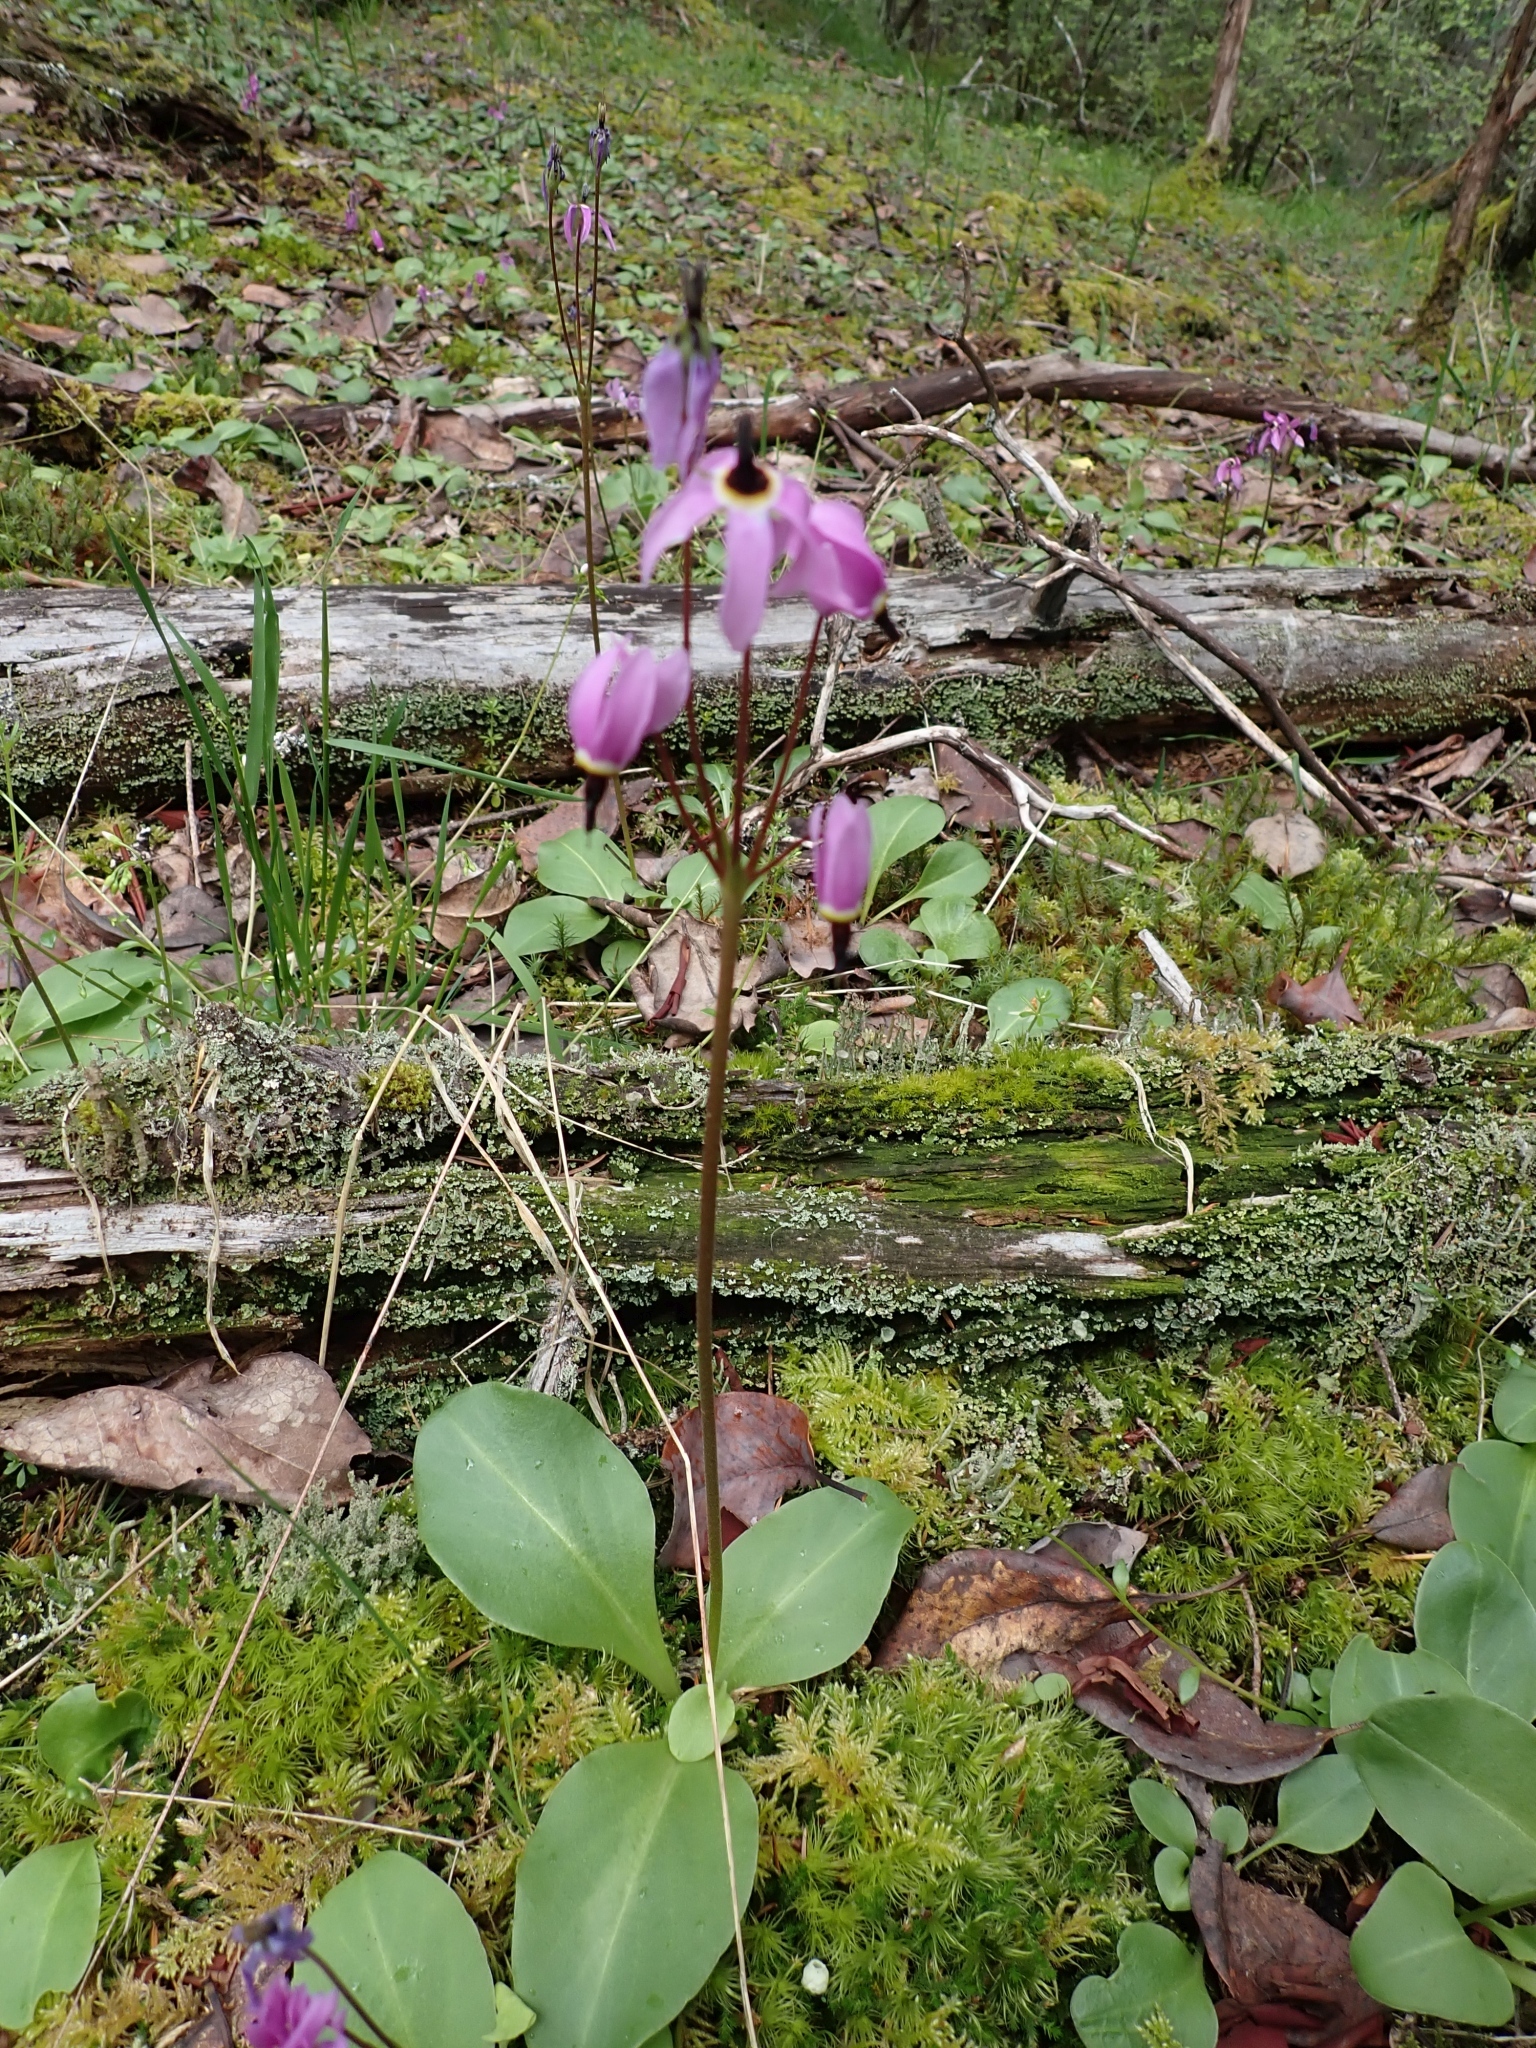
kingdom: Plantae
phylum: Tracheophyta
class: Magnoliopsida
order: Ericales
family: Primulaceae
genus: Dodecatheon
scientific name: Dodecatheon hendersonii
